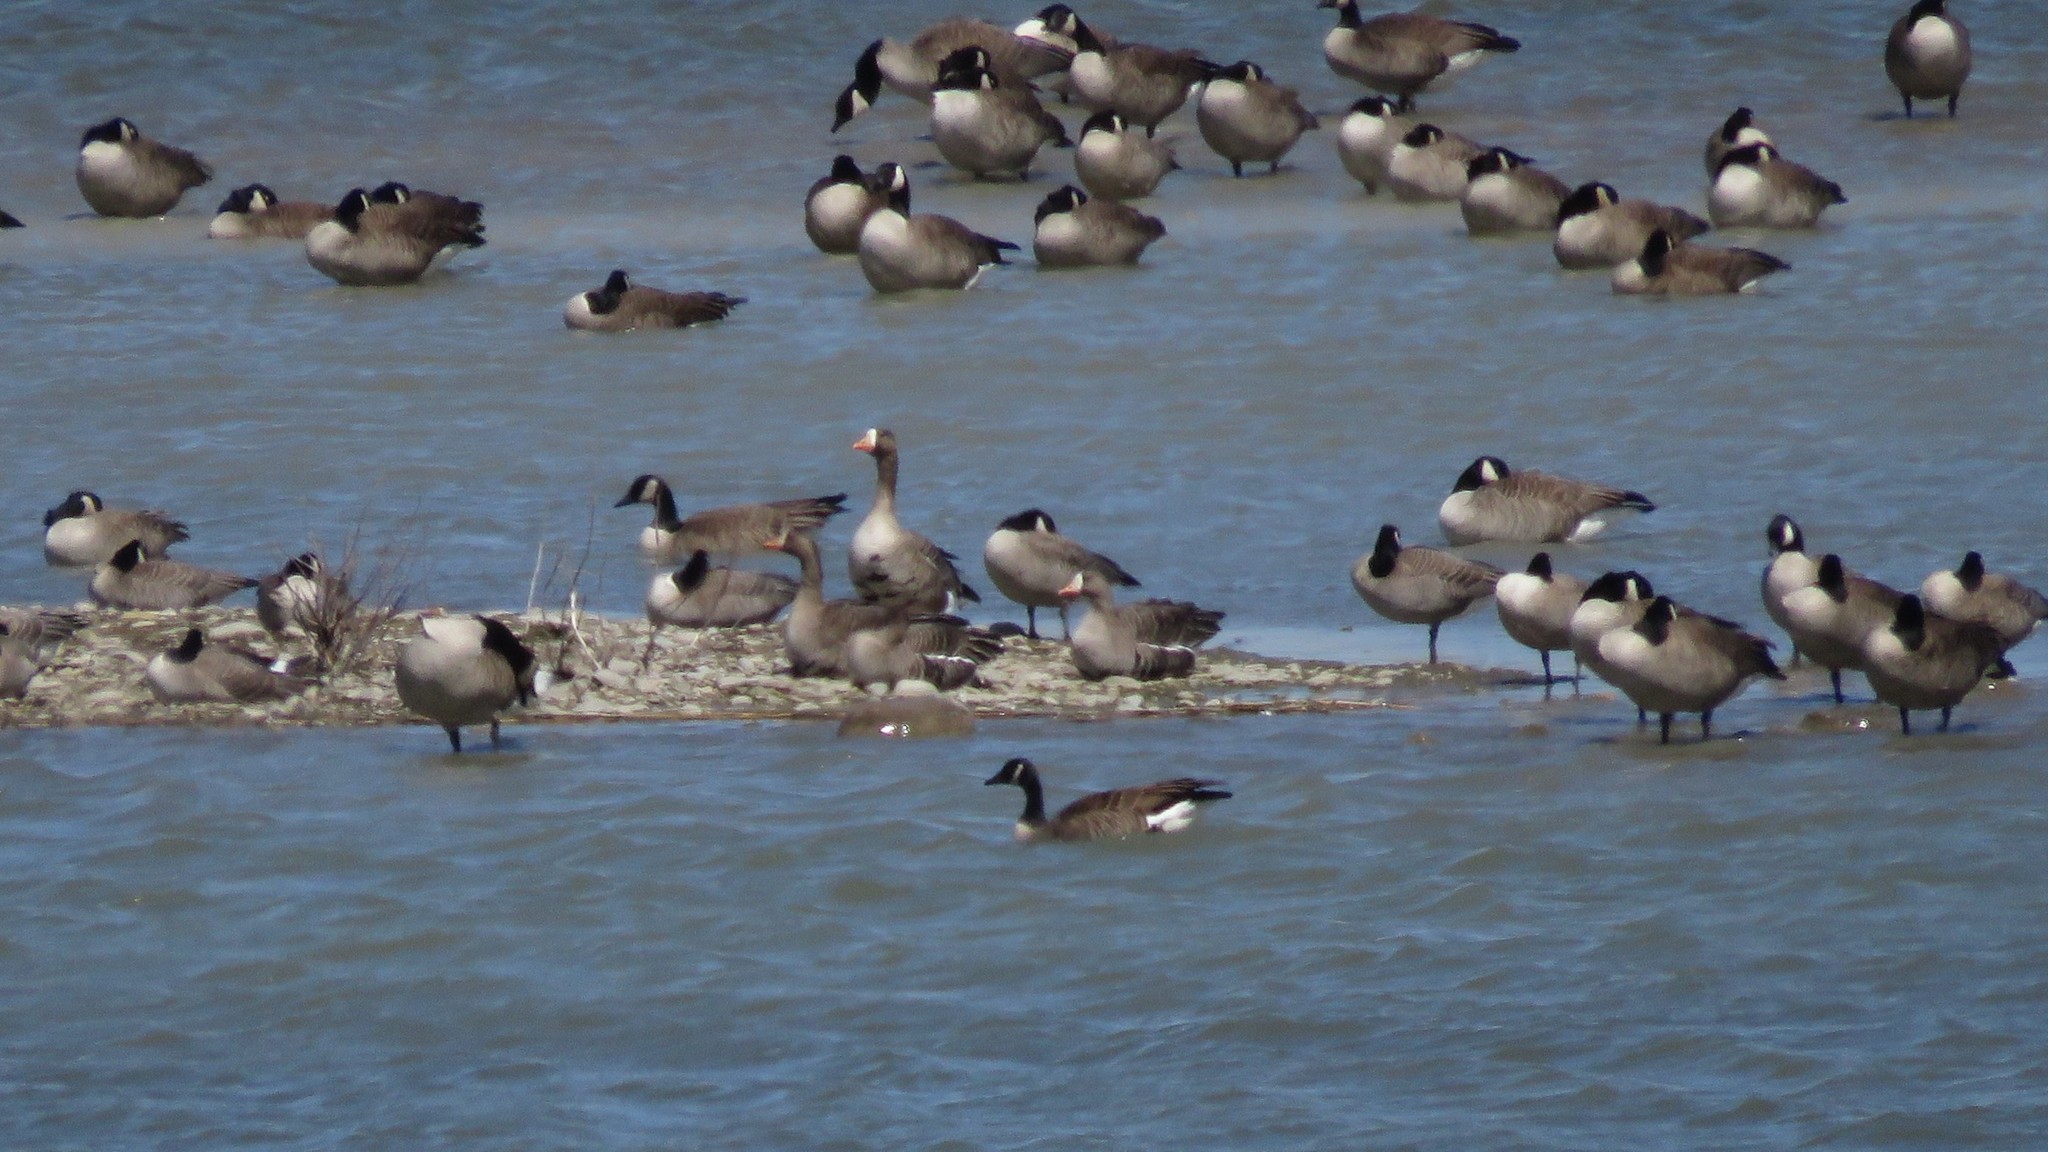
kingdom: Animalia
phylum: Chordata
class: Aves
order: Anseriformes
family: Anatidae
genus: Anser
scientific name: Anser albifrons
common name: Greater white-fronted goose
